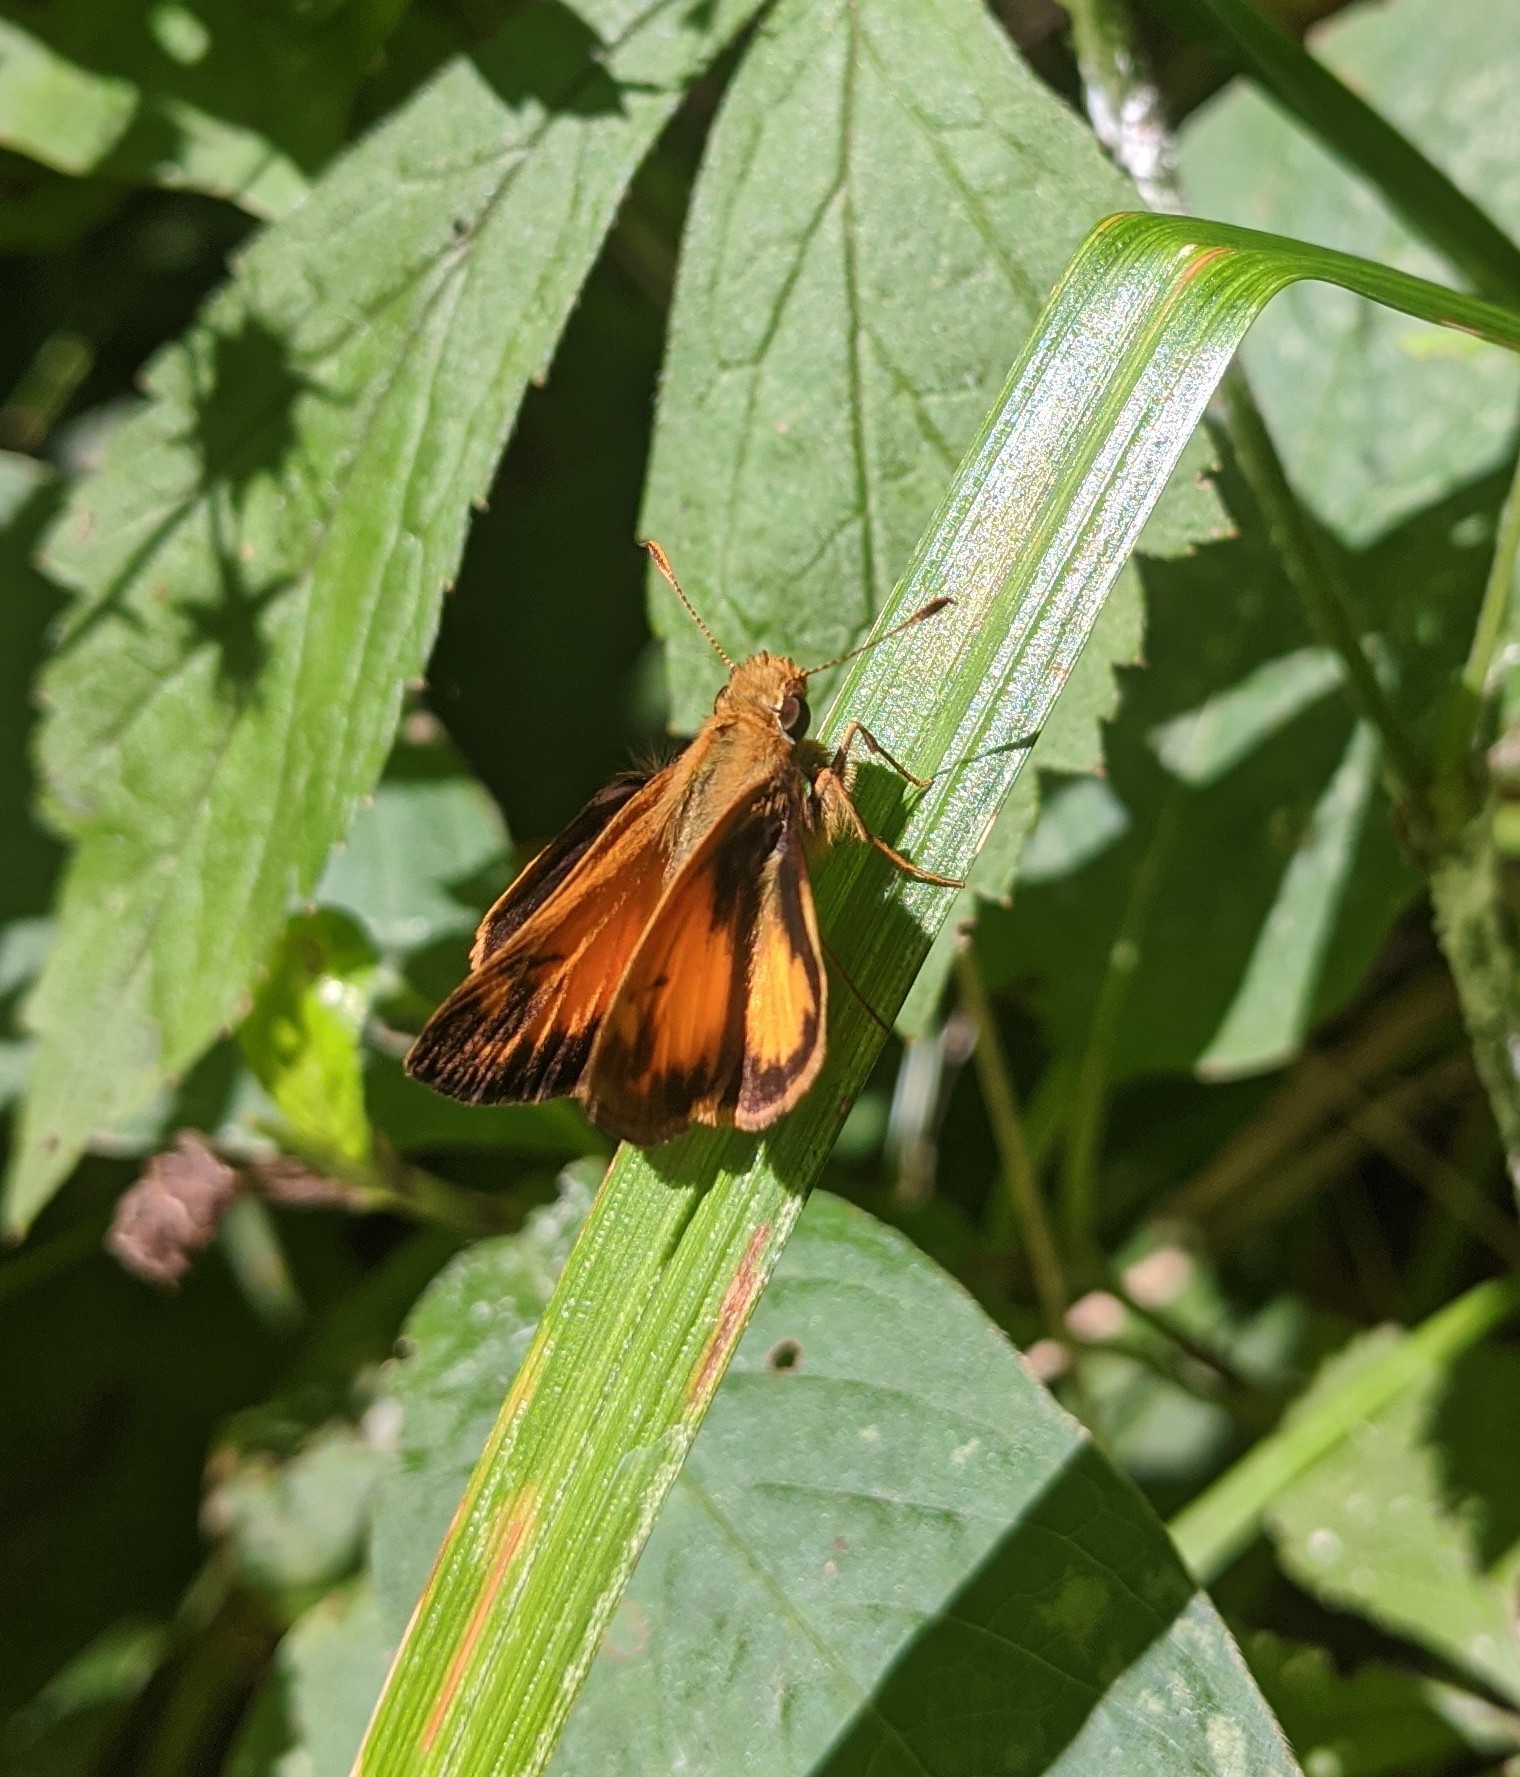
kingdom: Animalia
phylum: Arthropoda
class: Insecta
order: Lepidoptera
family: Hesperiidae
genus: Lon
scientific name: Lon zabulon
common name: Zabulon skipper
